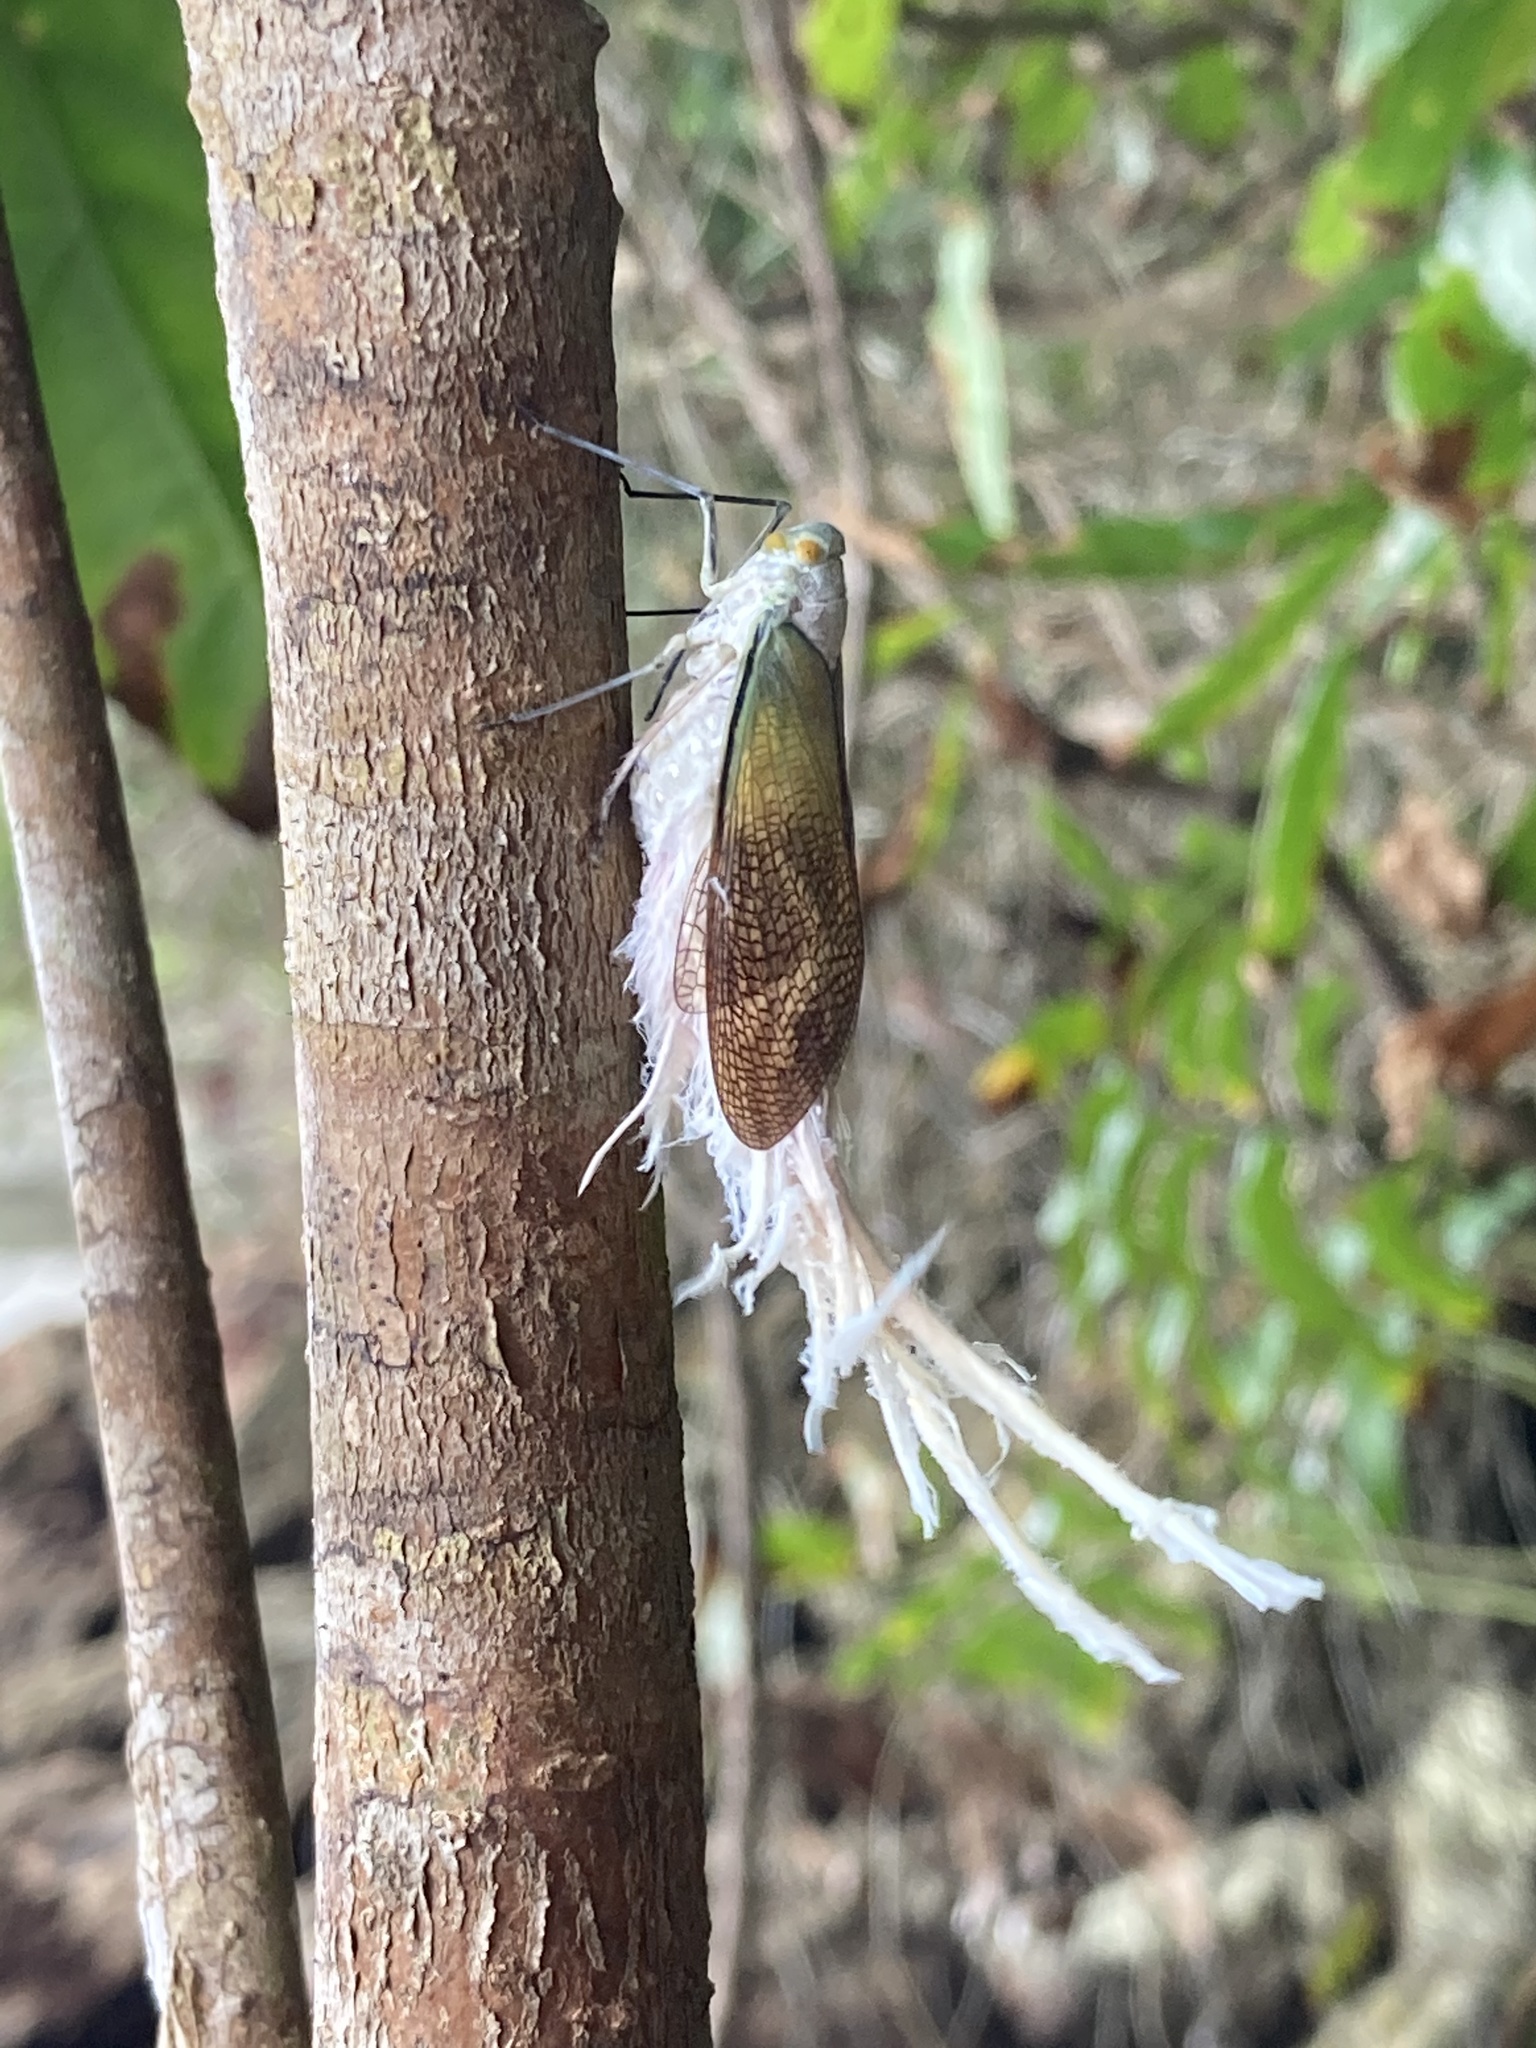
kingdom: Animalia
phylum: Arthropoda
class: Insecta
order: Hemiptera
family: Fulgoridae
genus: Pterodictya
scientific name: Pterodictya reticularis
